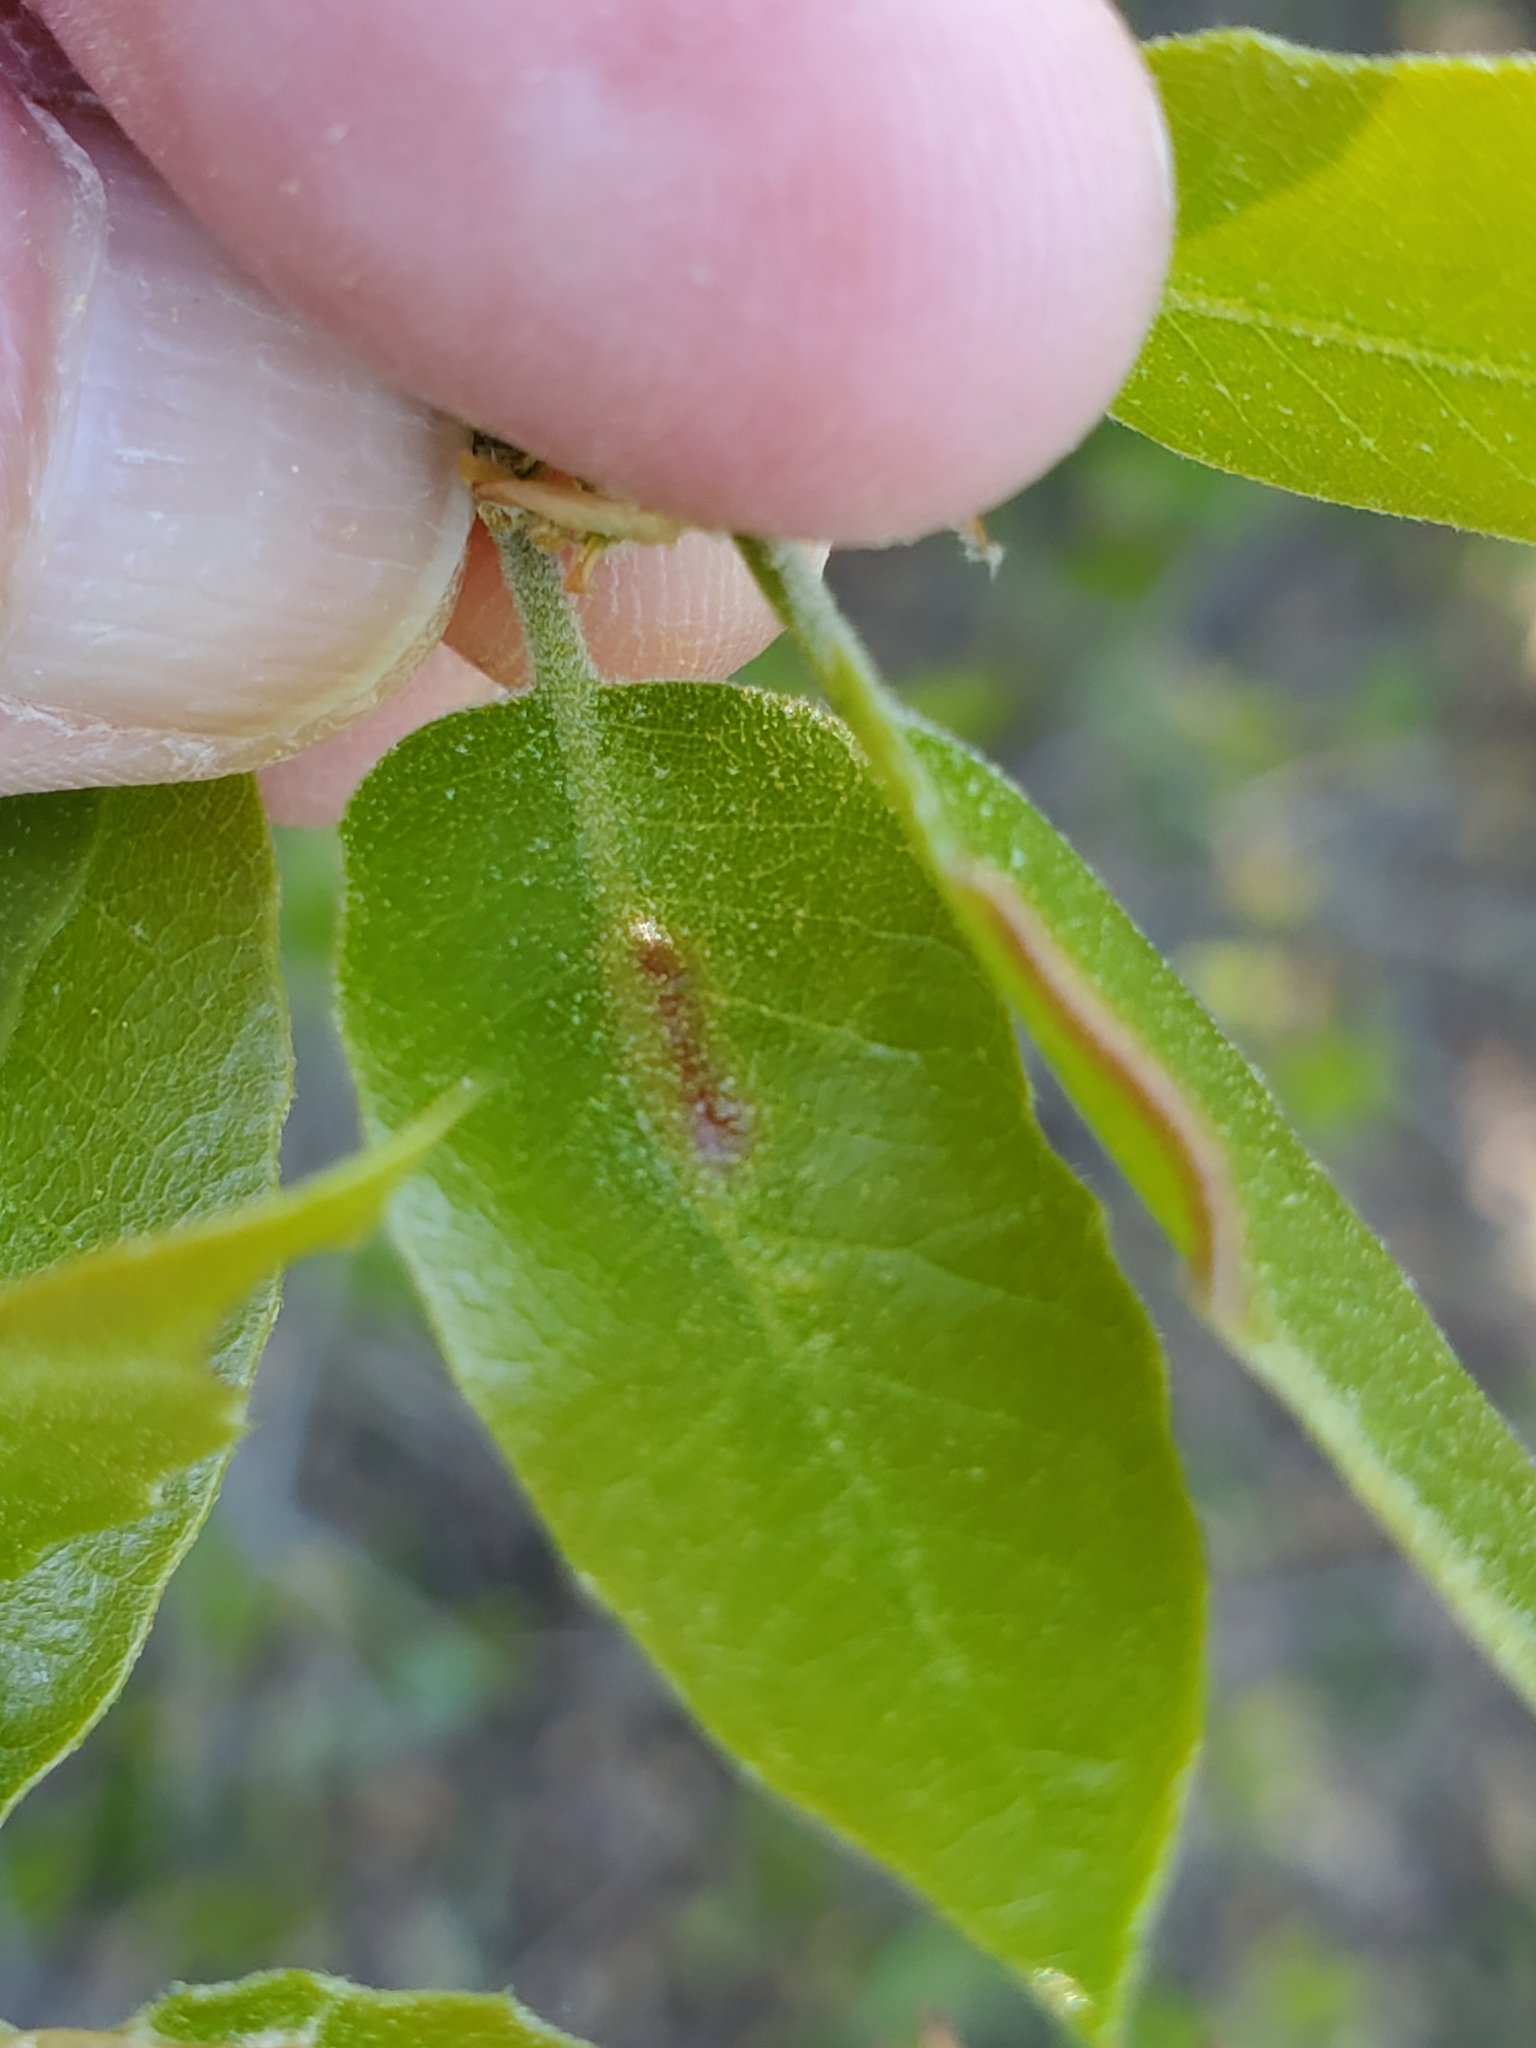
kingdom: Animalia
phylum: Arthropoda
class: Insecta
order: Hymenoptera
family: Cynipidae
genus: Melikaiella
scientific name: Melikaiella
